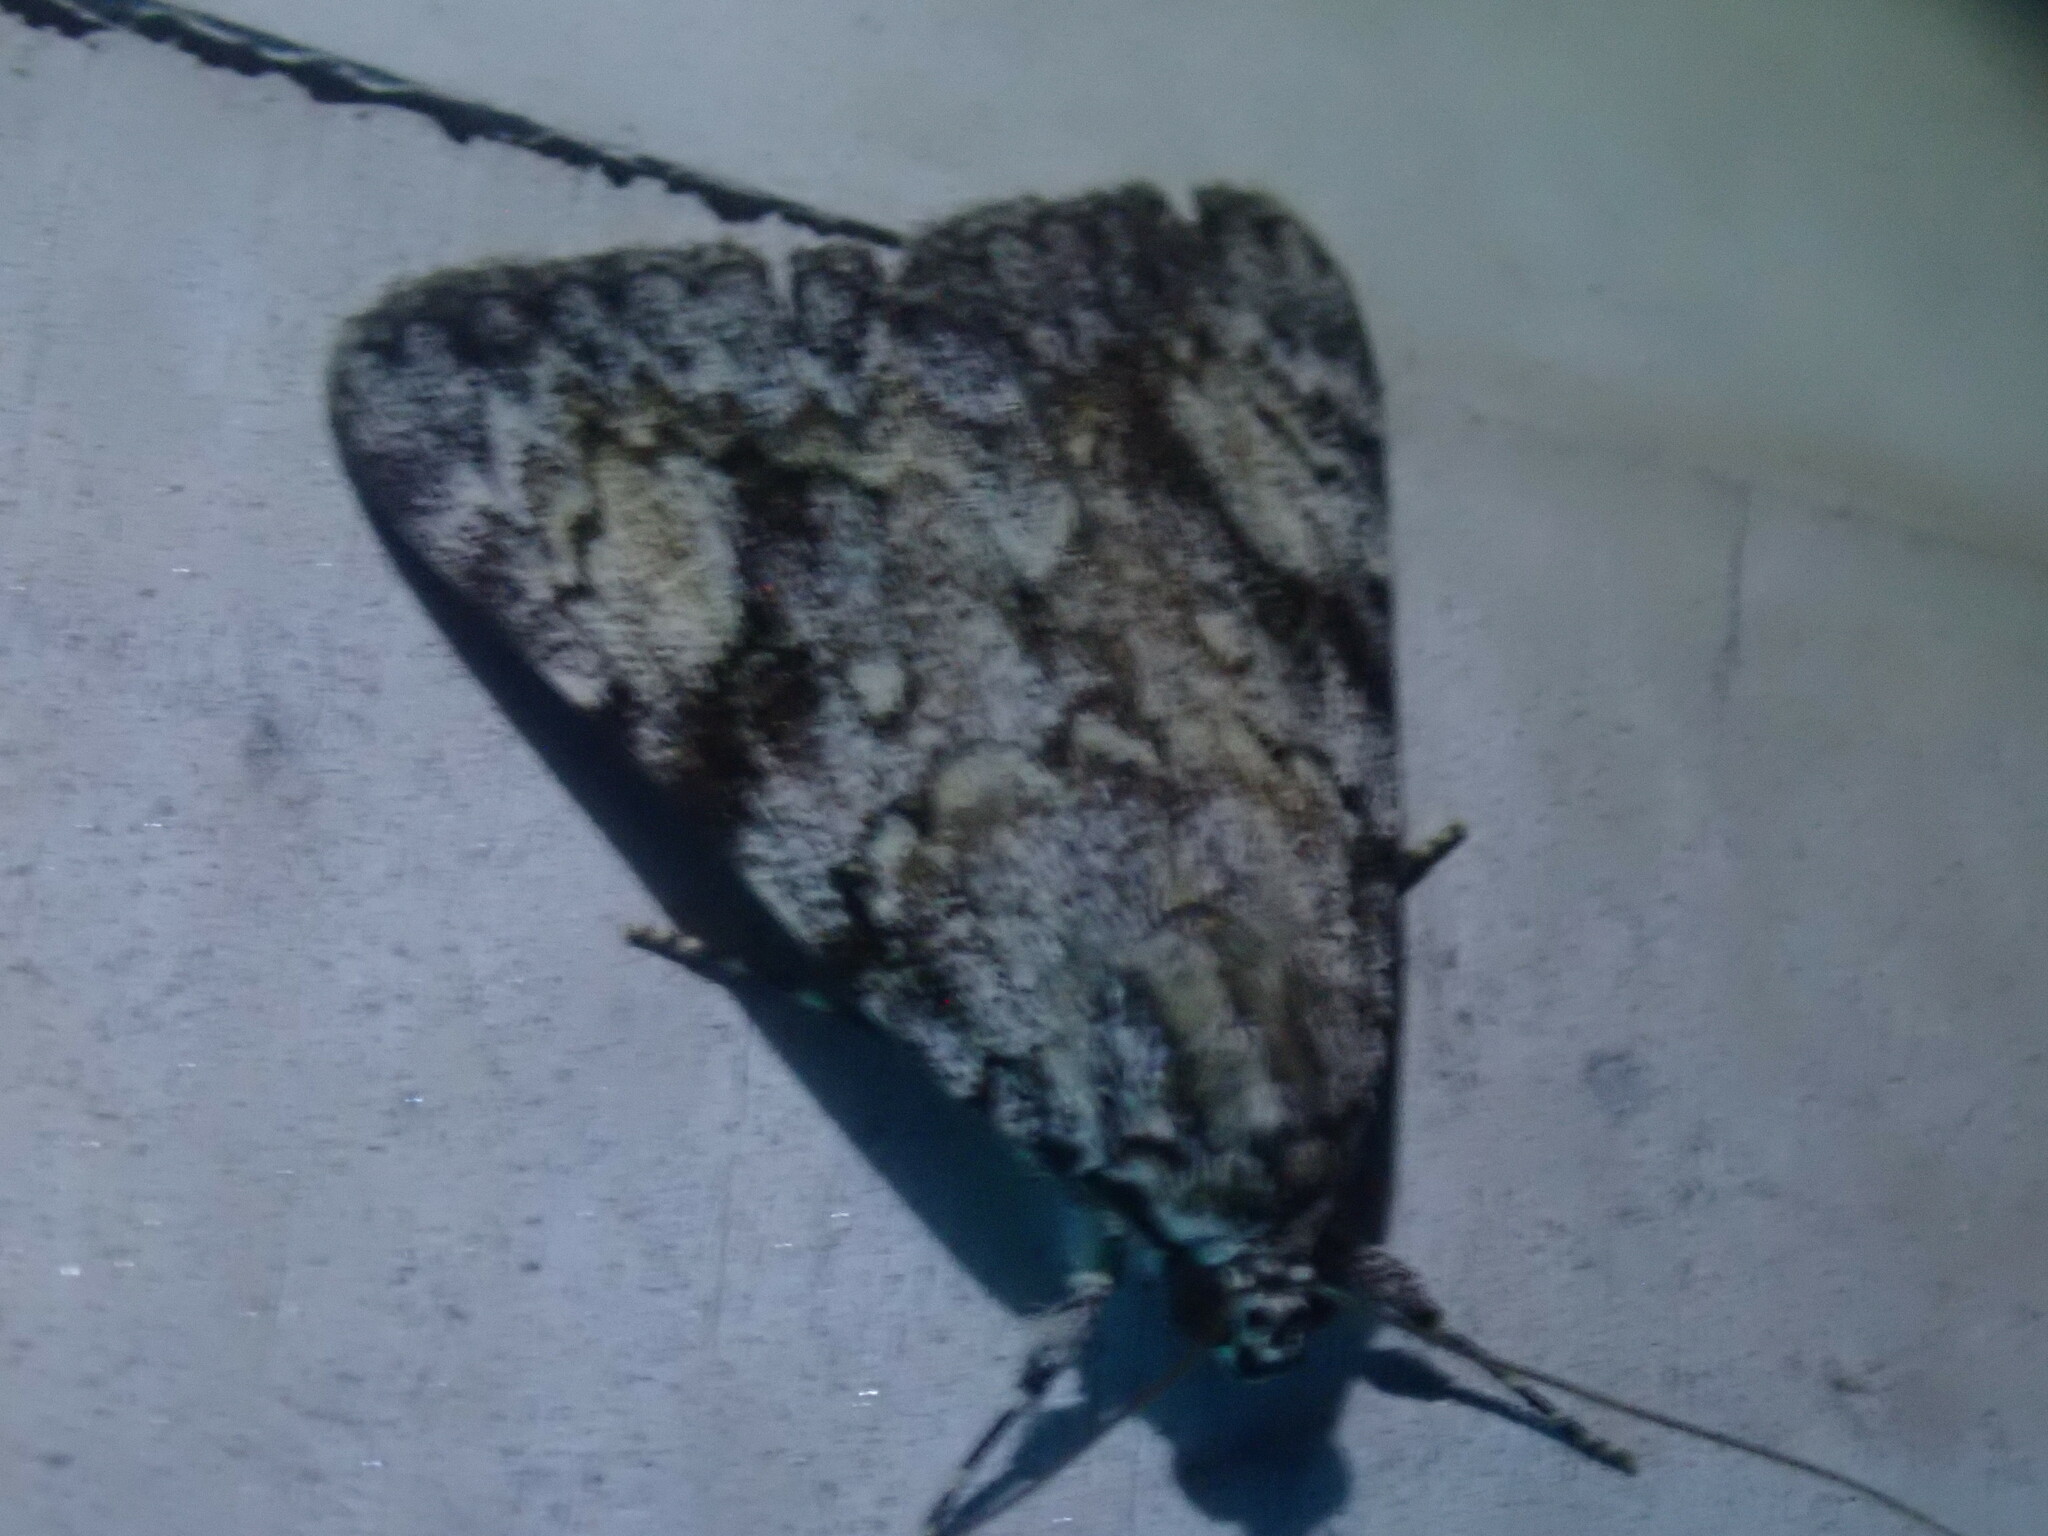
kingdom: Animalia
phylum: Arthropoda
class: Insecta
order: Lepidoptera
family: Erebidae
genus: Catocala
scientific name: Catocala amica
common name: Girlfriend underwing
